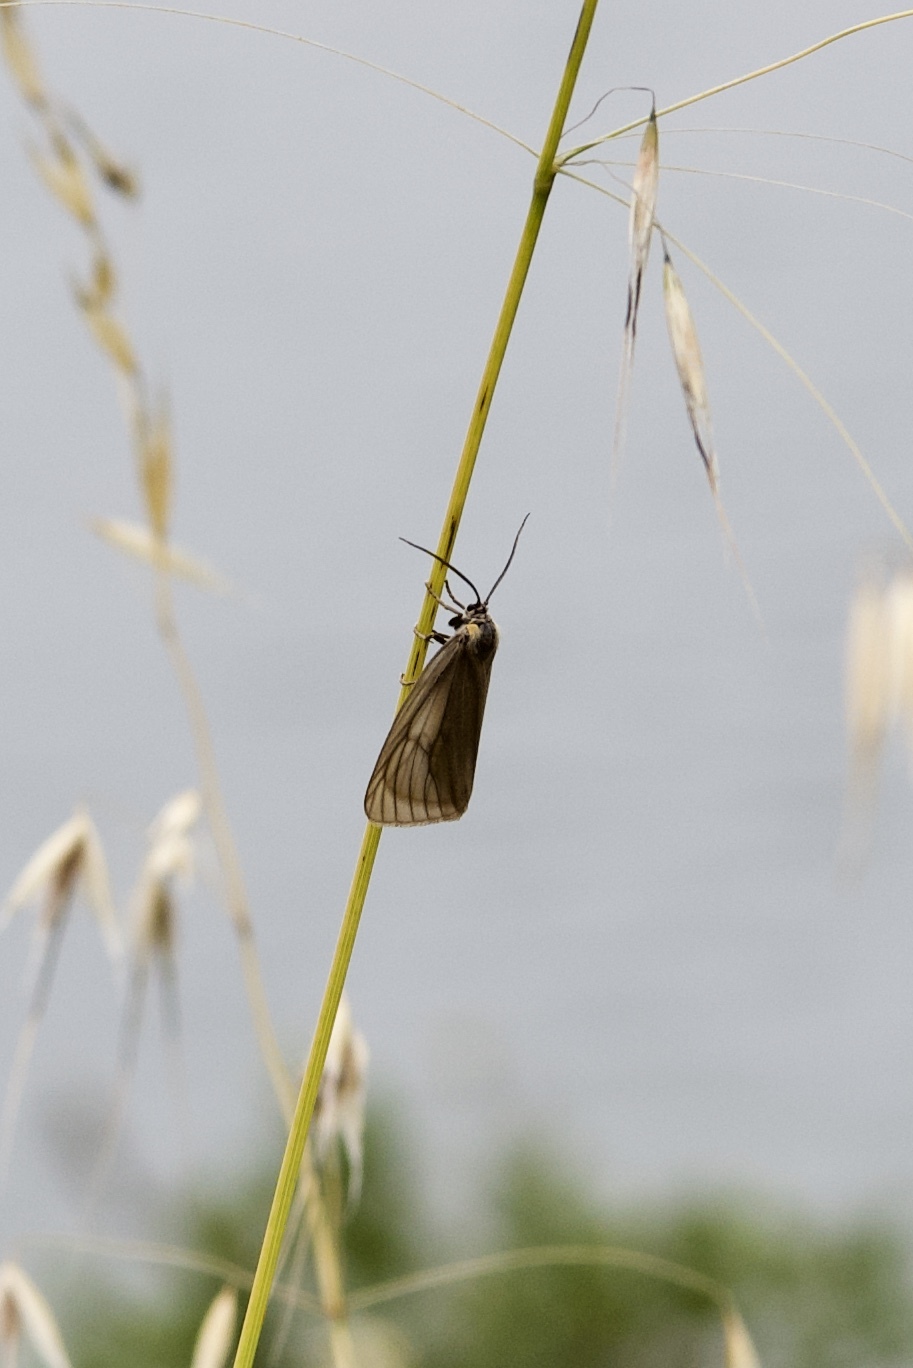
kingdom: Animalia
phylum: Arthropoda
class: Insecta
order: Lepidoptera
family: Notodontidae
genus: Phryganidia
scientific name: Phryganidia californica
